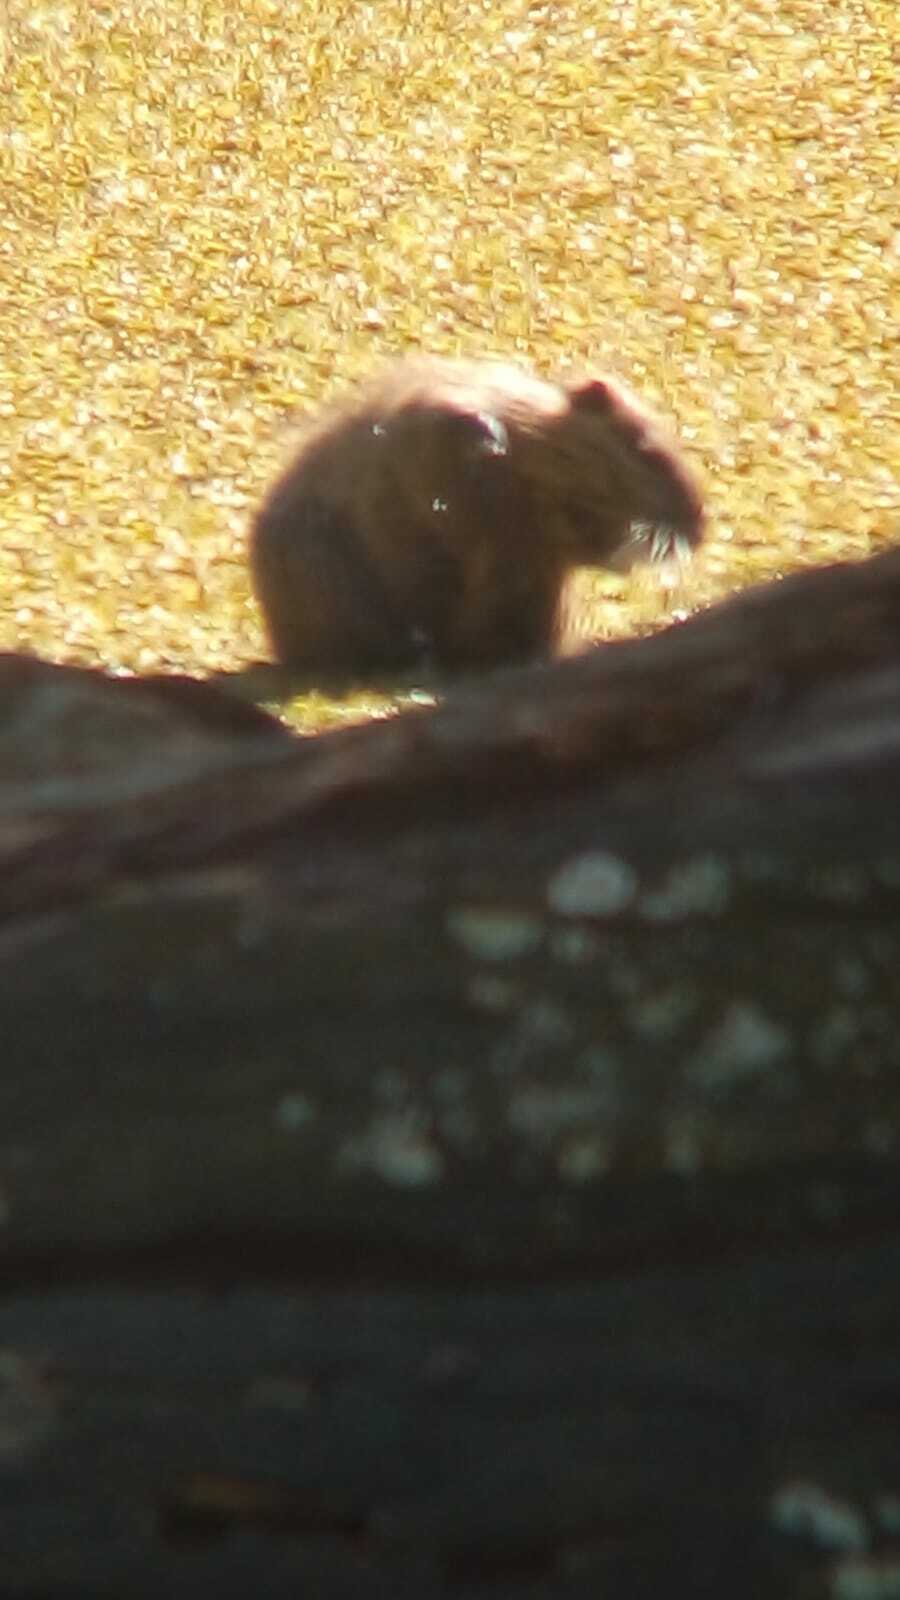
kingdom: Animalia
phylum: Chordata
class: Mammalia
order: Rodentia
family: Myocastoridae
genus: Myocastor
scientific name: Myocastor coypus
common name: Coypu
